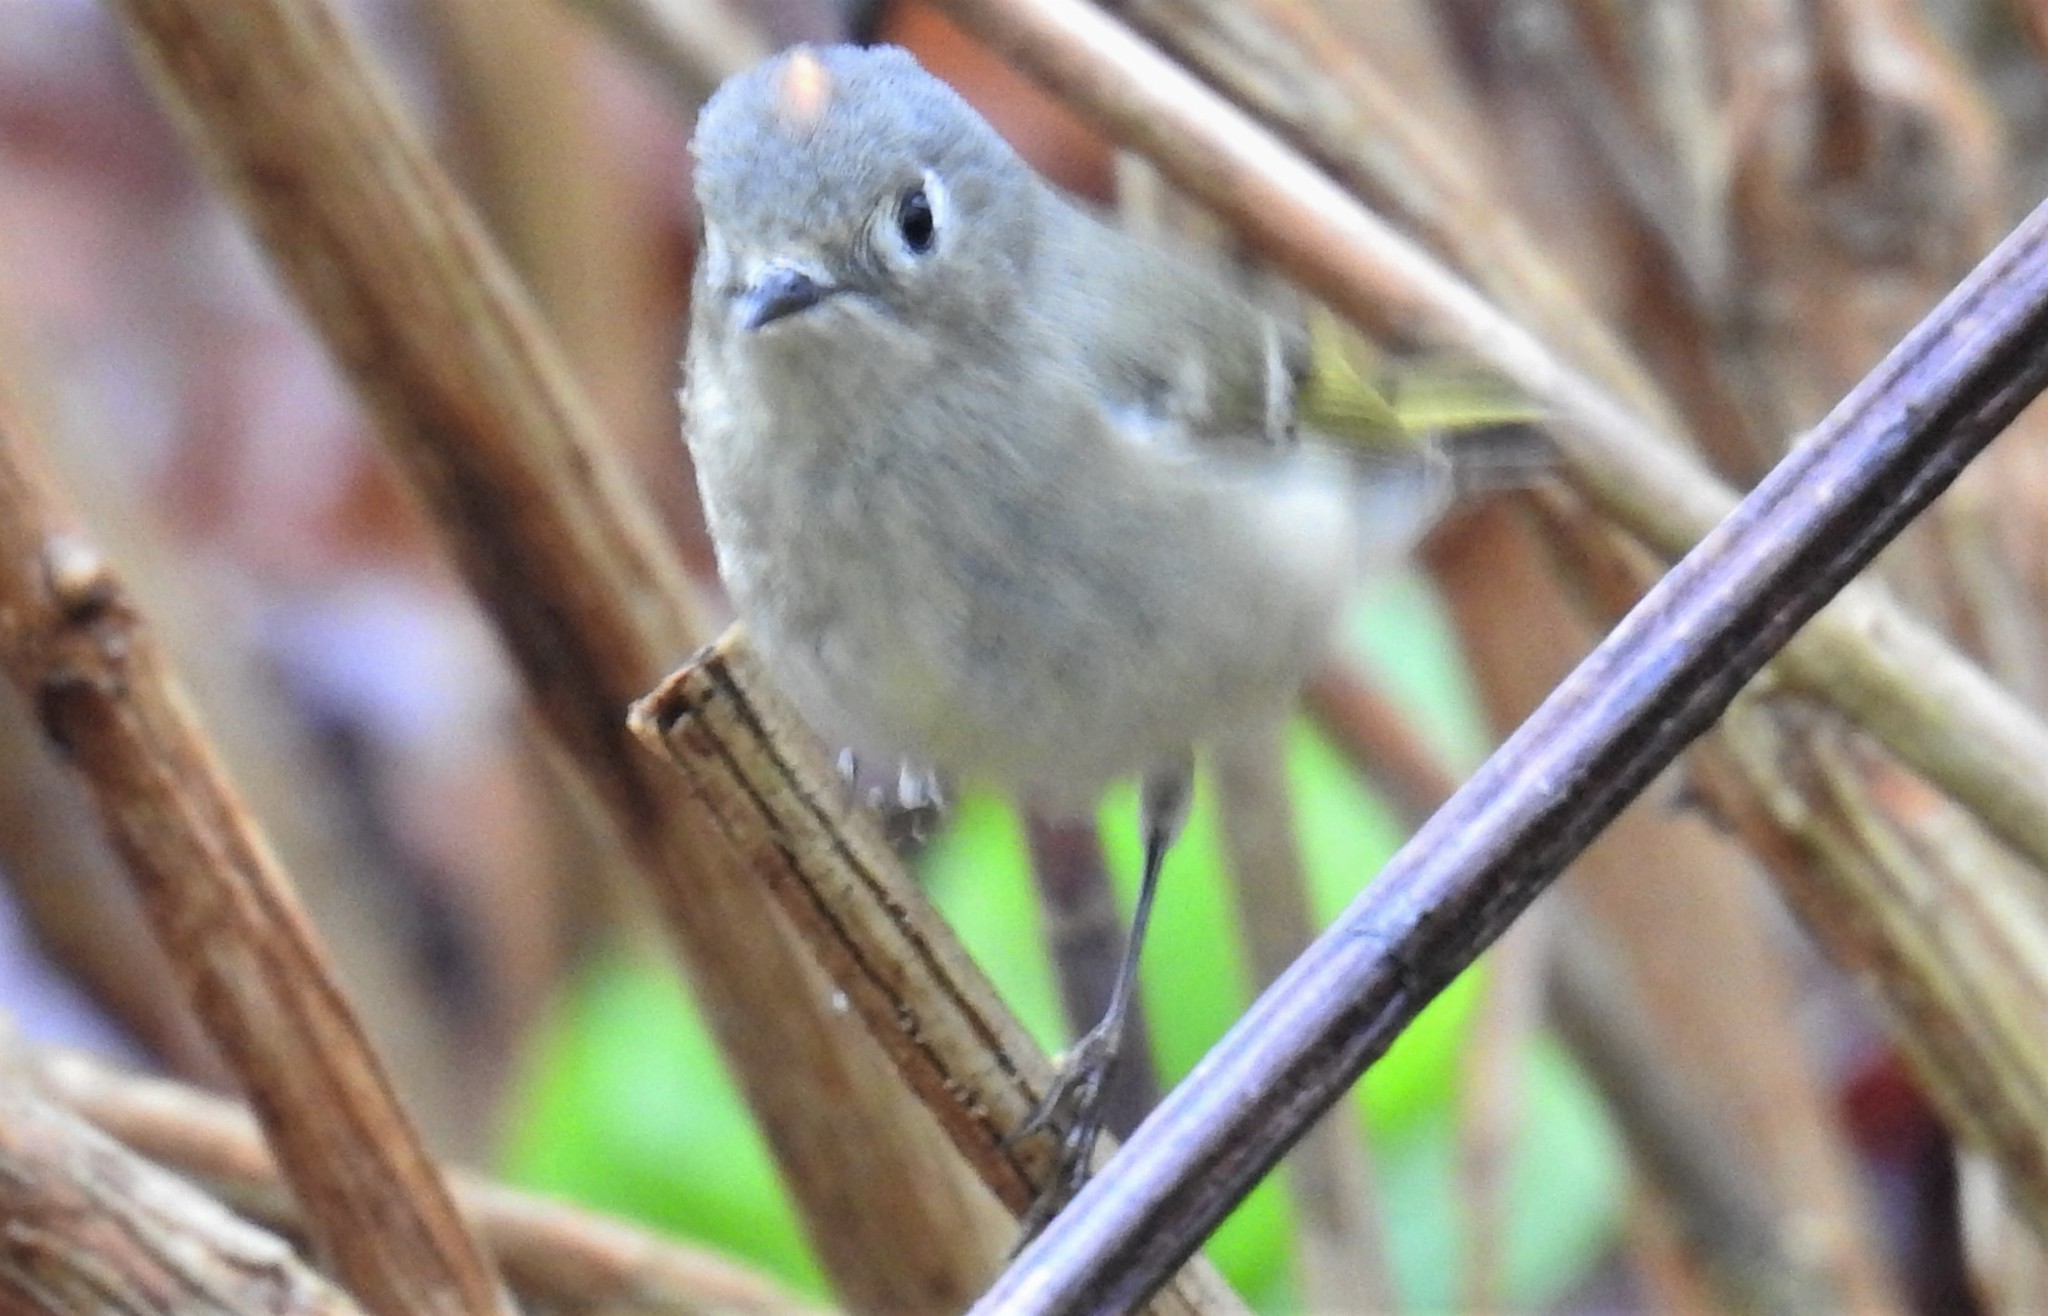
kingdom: Animalia
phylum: Chordata
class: Aves
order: Passeriformes
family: Regulidae
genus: Regulus
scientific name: Regulus calendula
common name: Ruby-crowned kinglet
